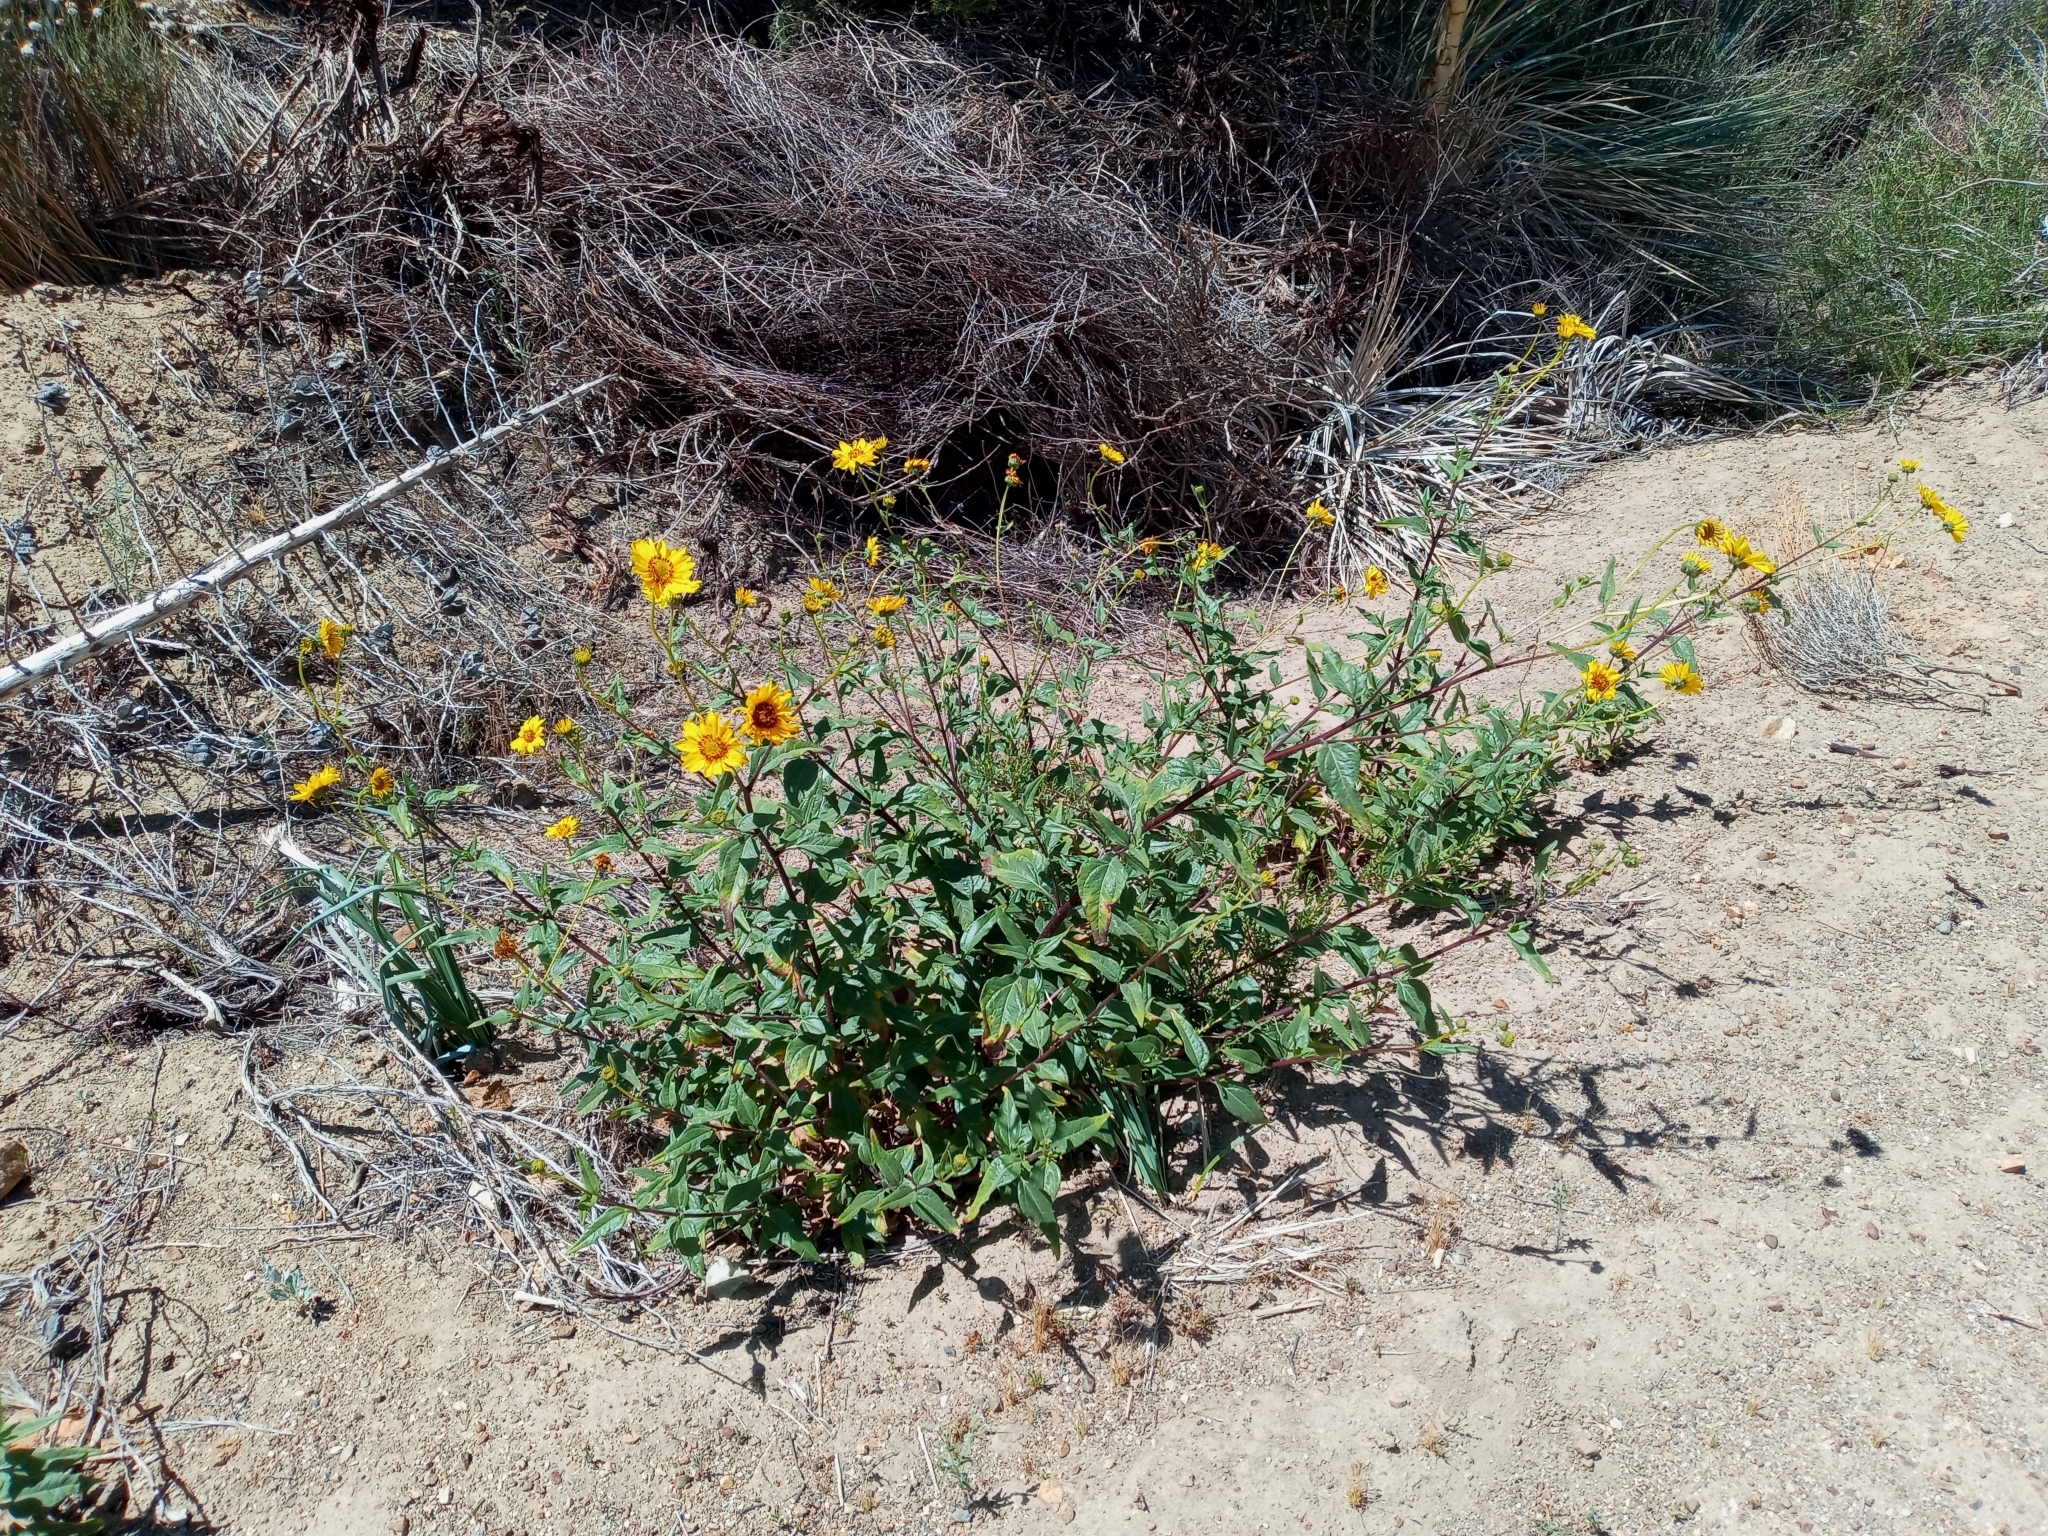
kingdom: Plantae
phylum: Tracheophyta
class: Magnoliopsida
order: Asterales
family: Asteraceae
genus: Helianthus
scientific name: Helianthus gracilentus
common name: Slender sunflower
